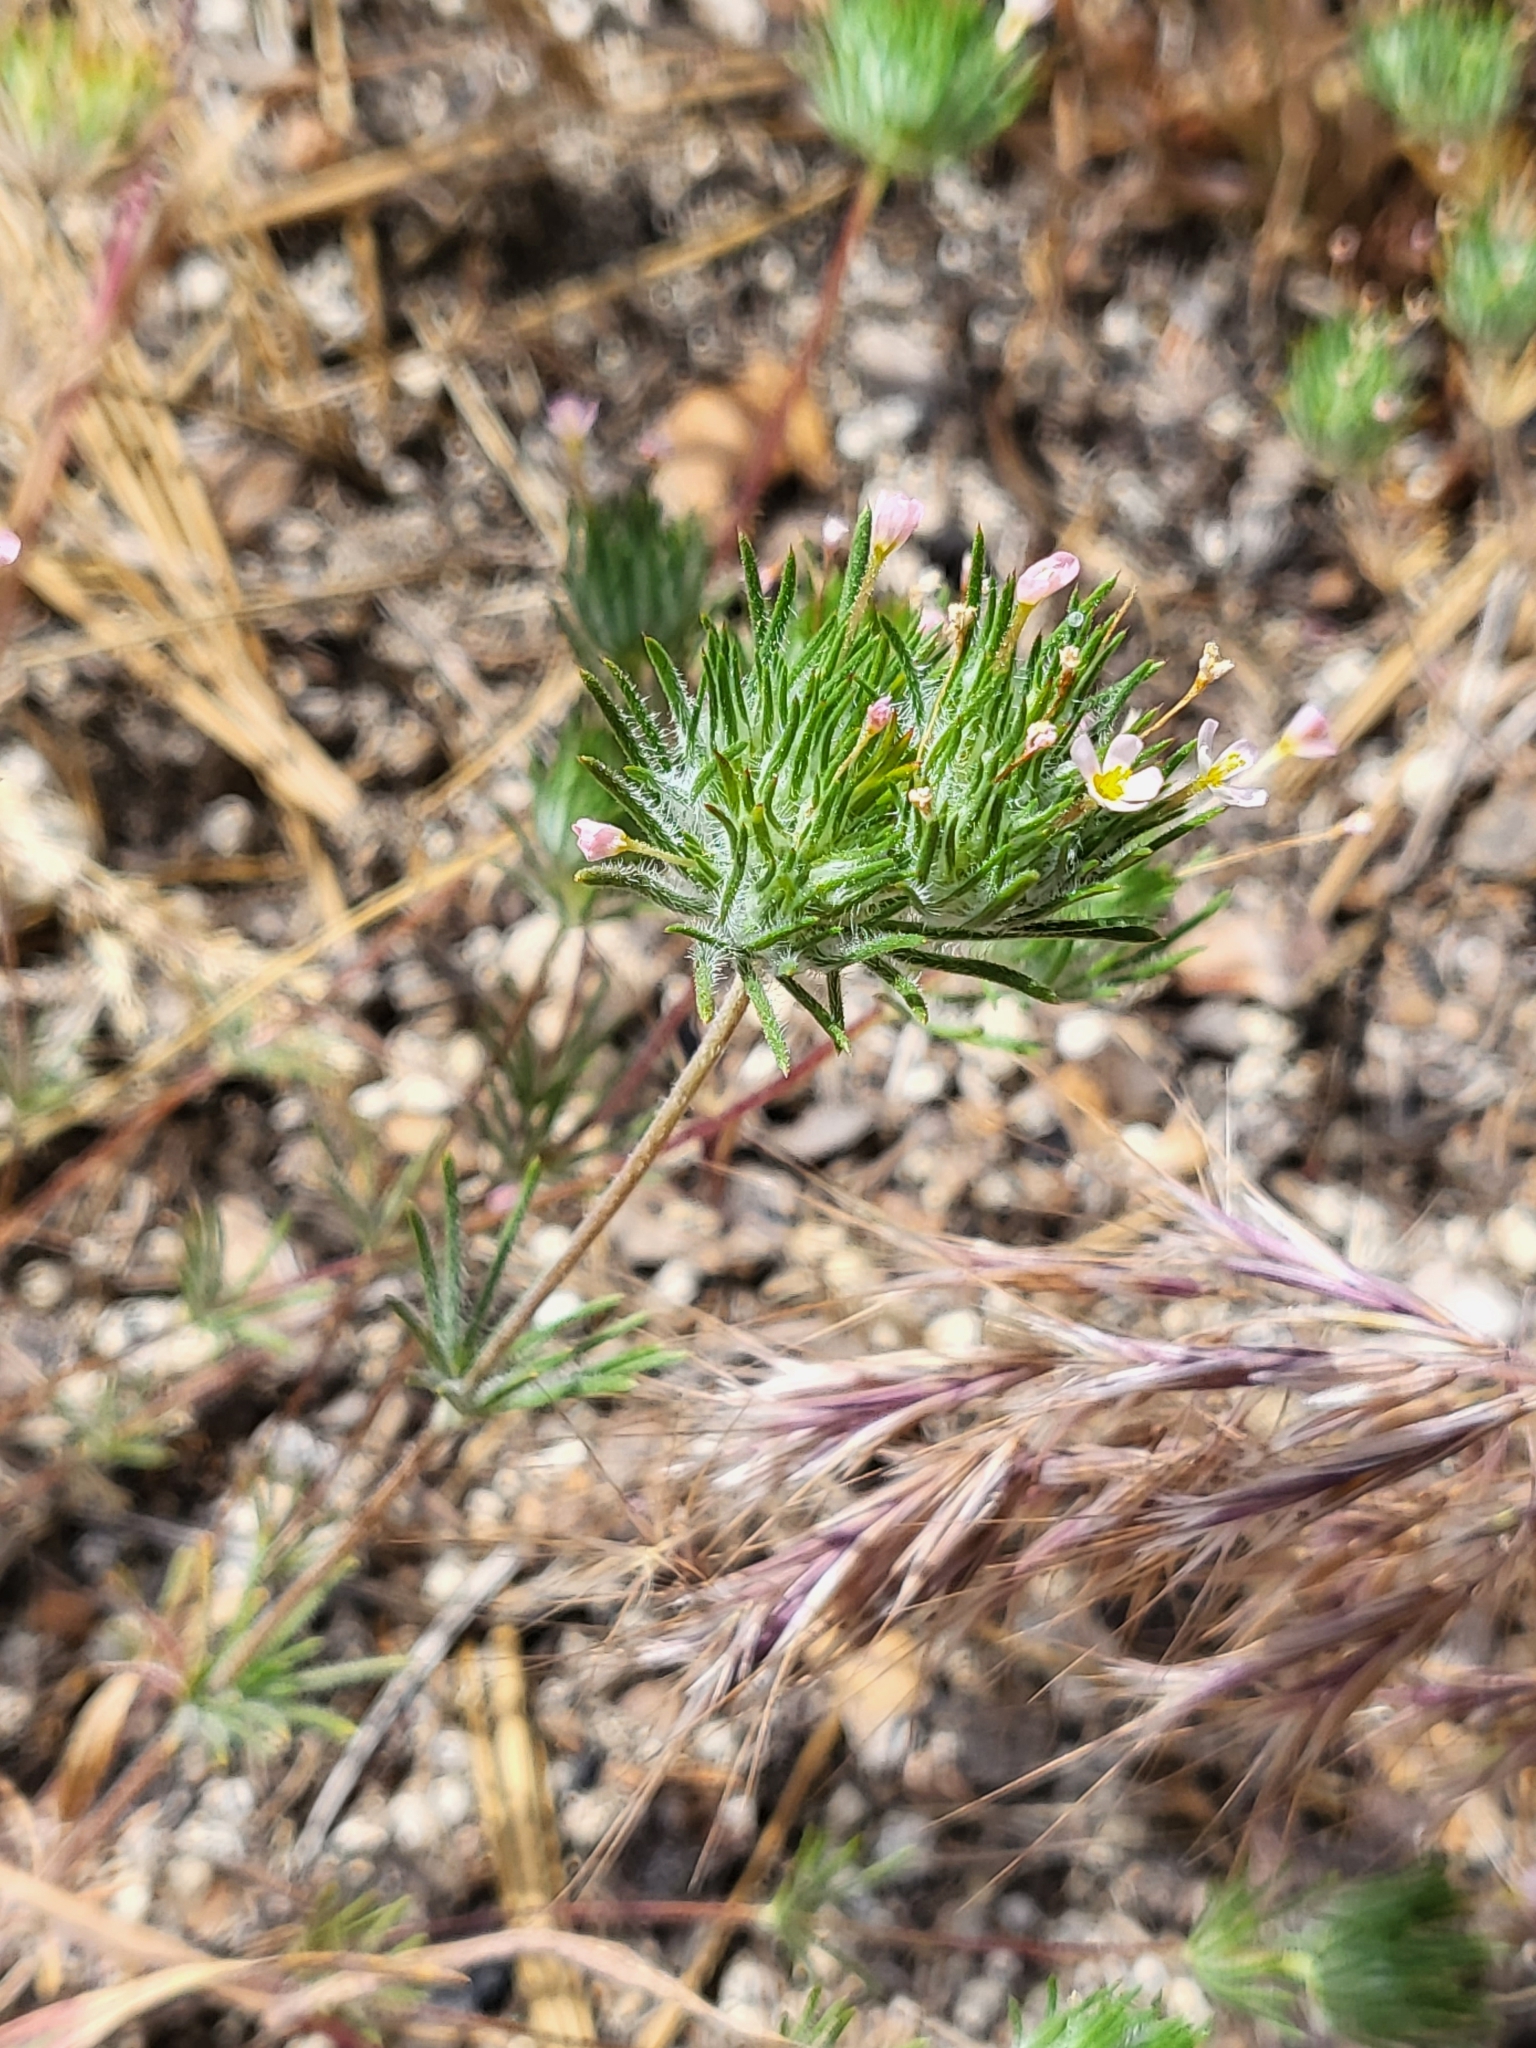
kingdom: Plantae
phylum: Tracheophyta
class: Magnoliopsida
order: Ericales
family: Polemoniaceae
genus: Leptosiphon
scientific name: Leptosiphon ciliatus
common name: Whiskerbrush
